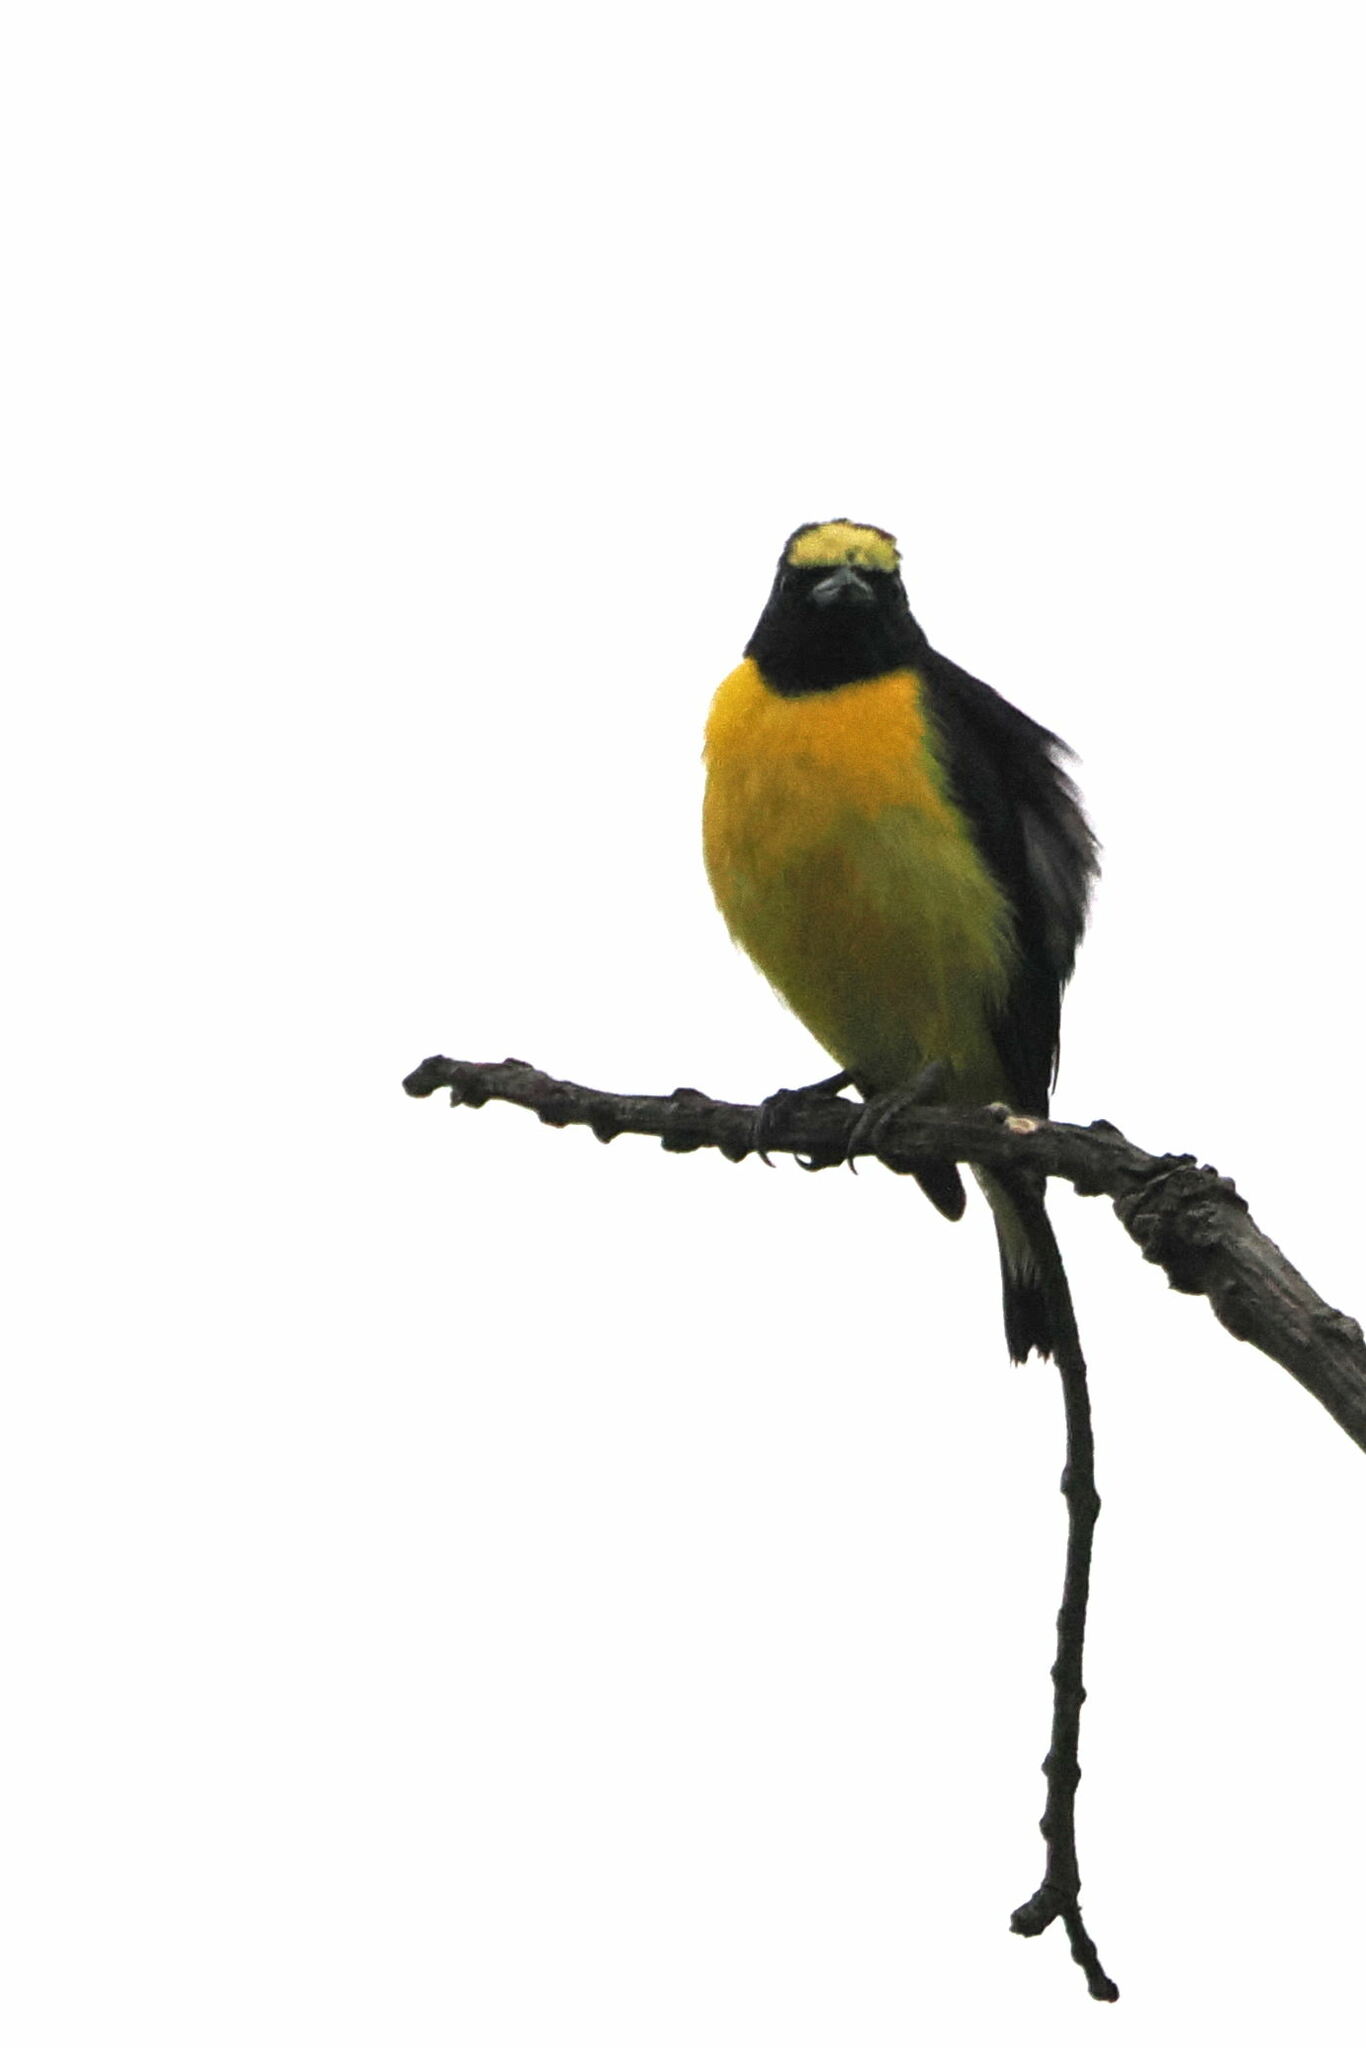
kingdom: Animalia
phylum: Chordata
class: Aves
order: Passeriformes
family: Fringillidae
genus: Euphonia
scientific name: Euphonia chlorotica
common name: Purple-throated euphonia
